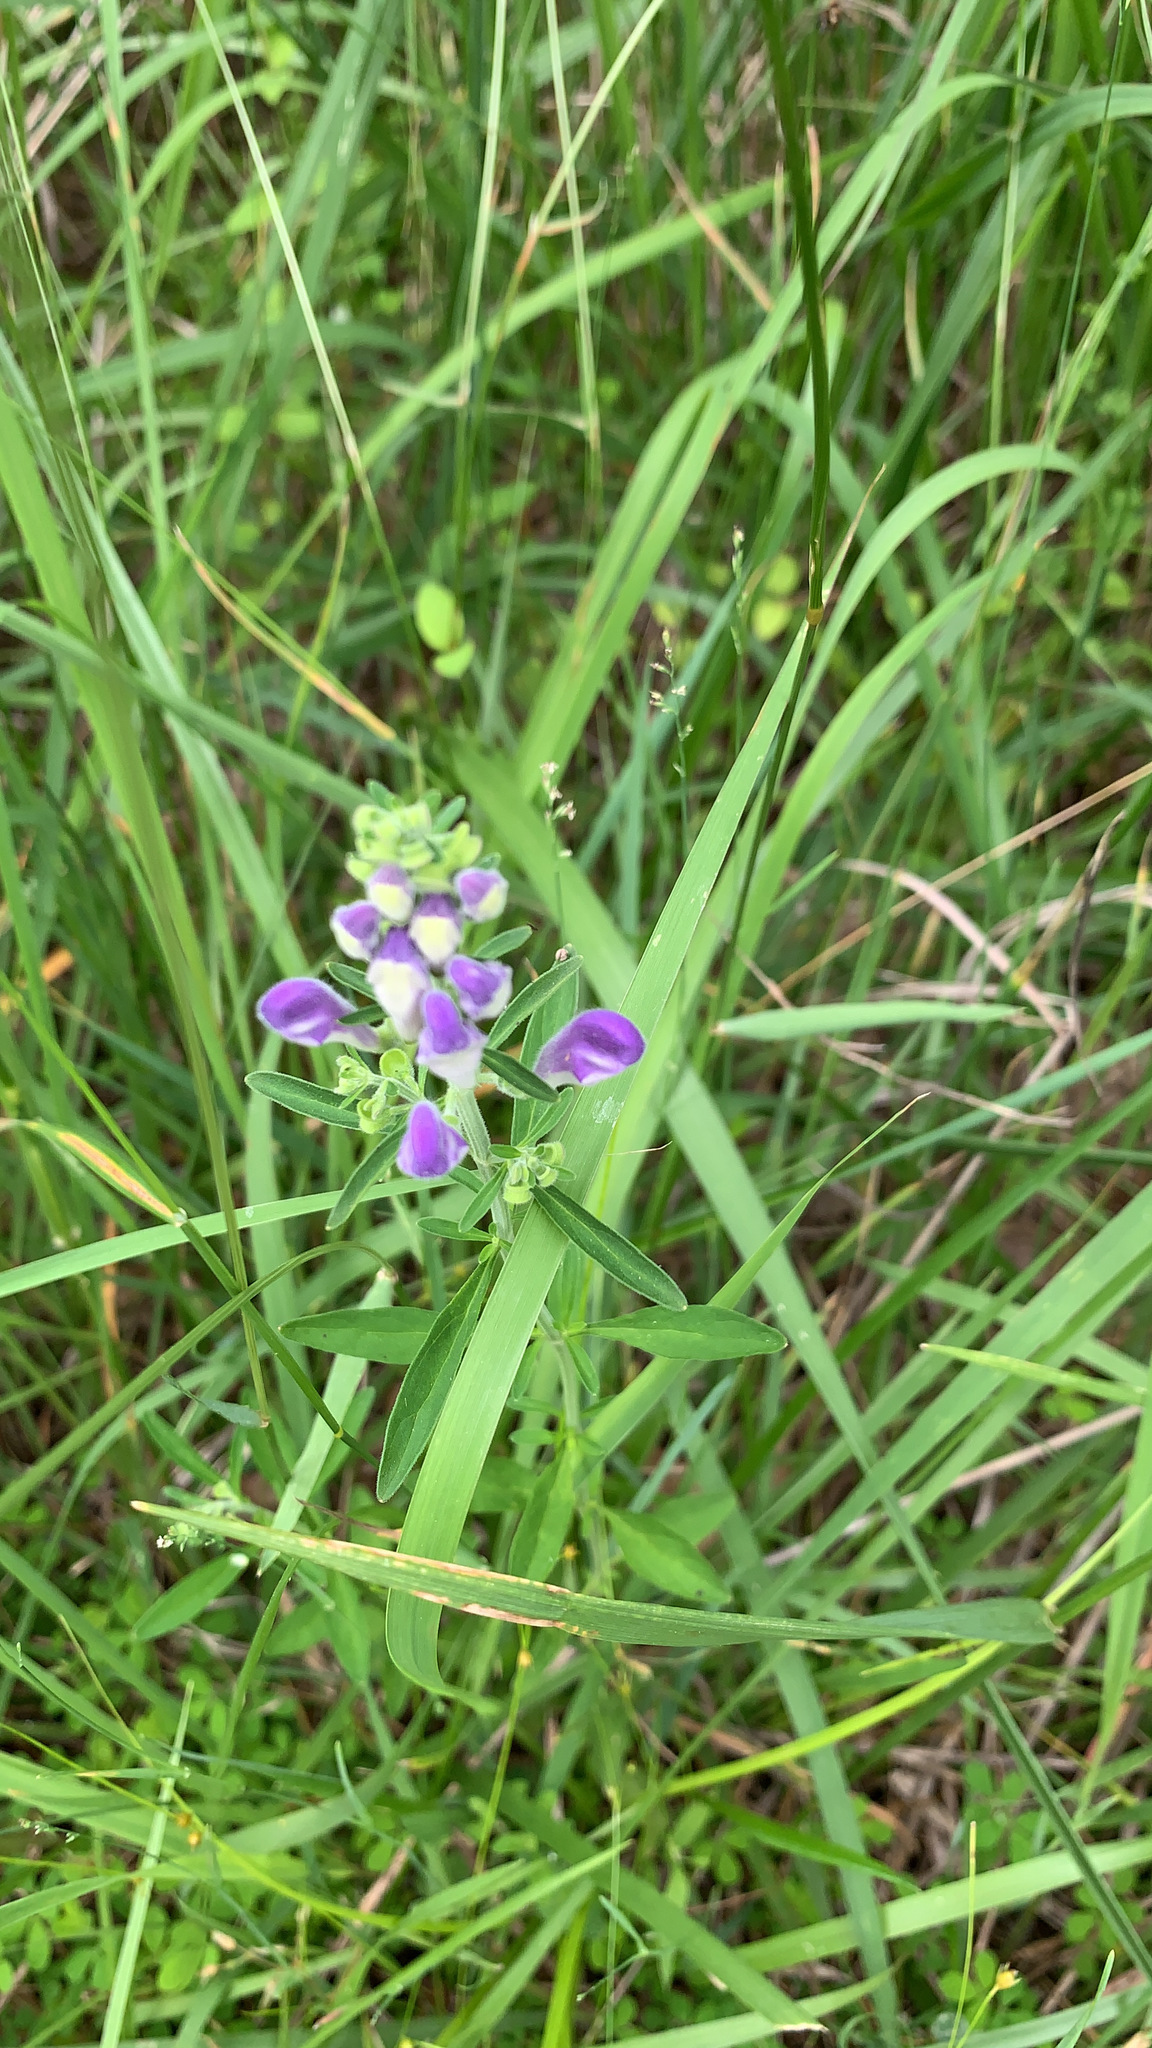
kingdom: Plantae
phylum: Tracheophyta
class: Magnoliopsida
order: Lamiales
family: Lamiaceae
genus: Scutellaria
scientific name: Scutellaria integrifolia
